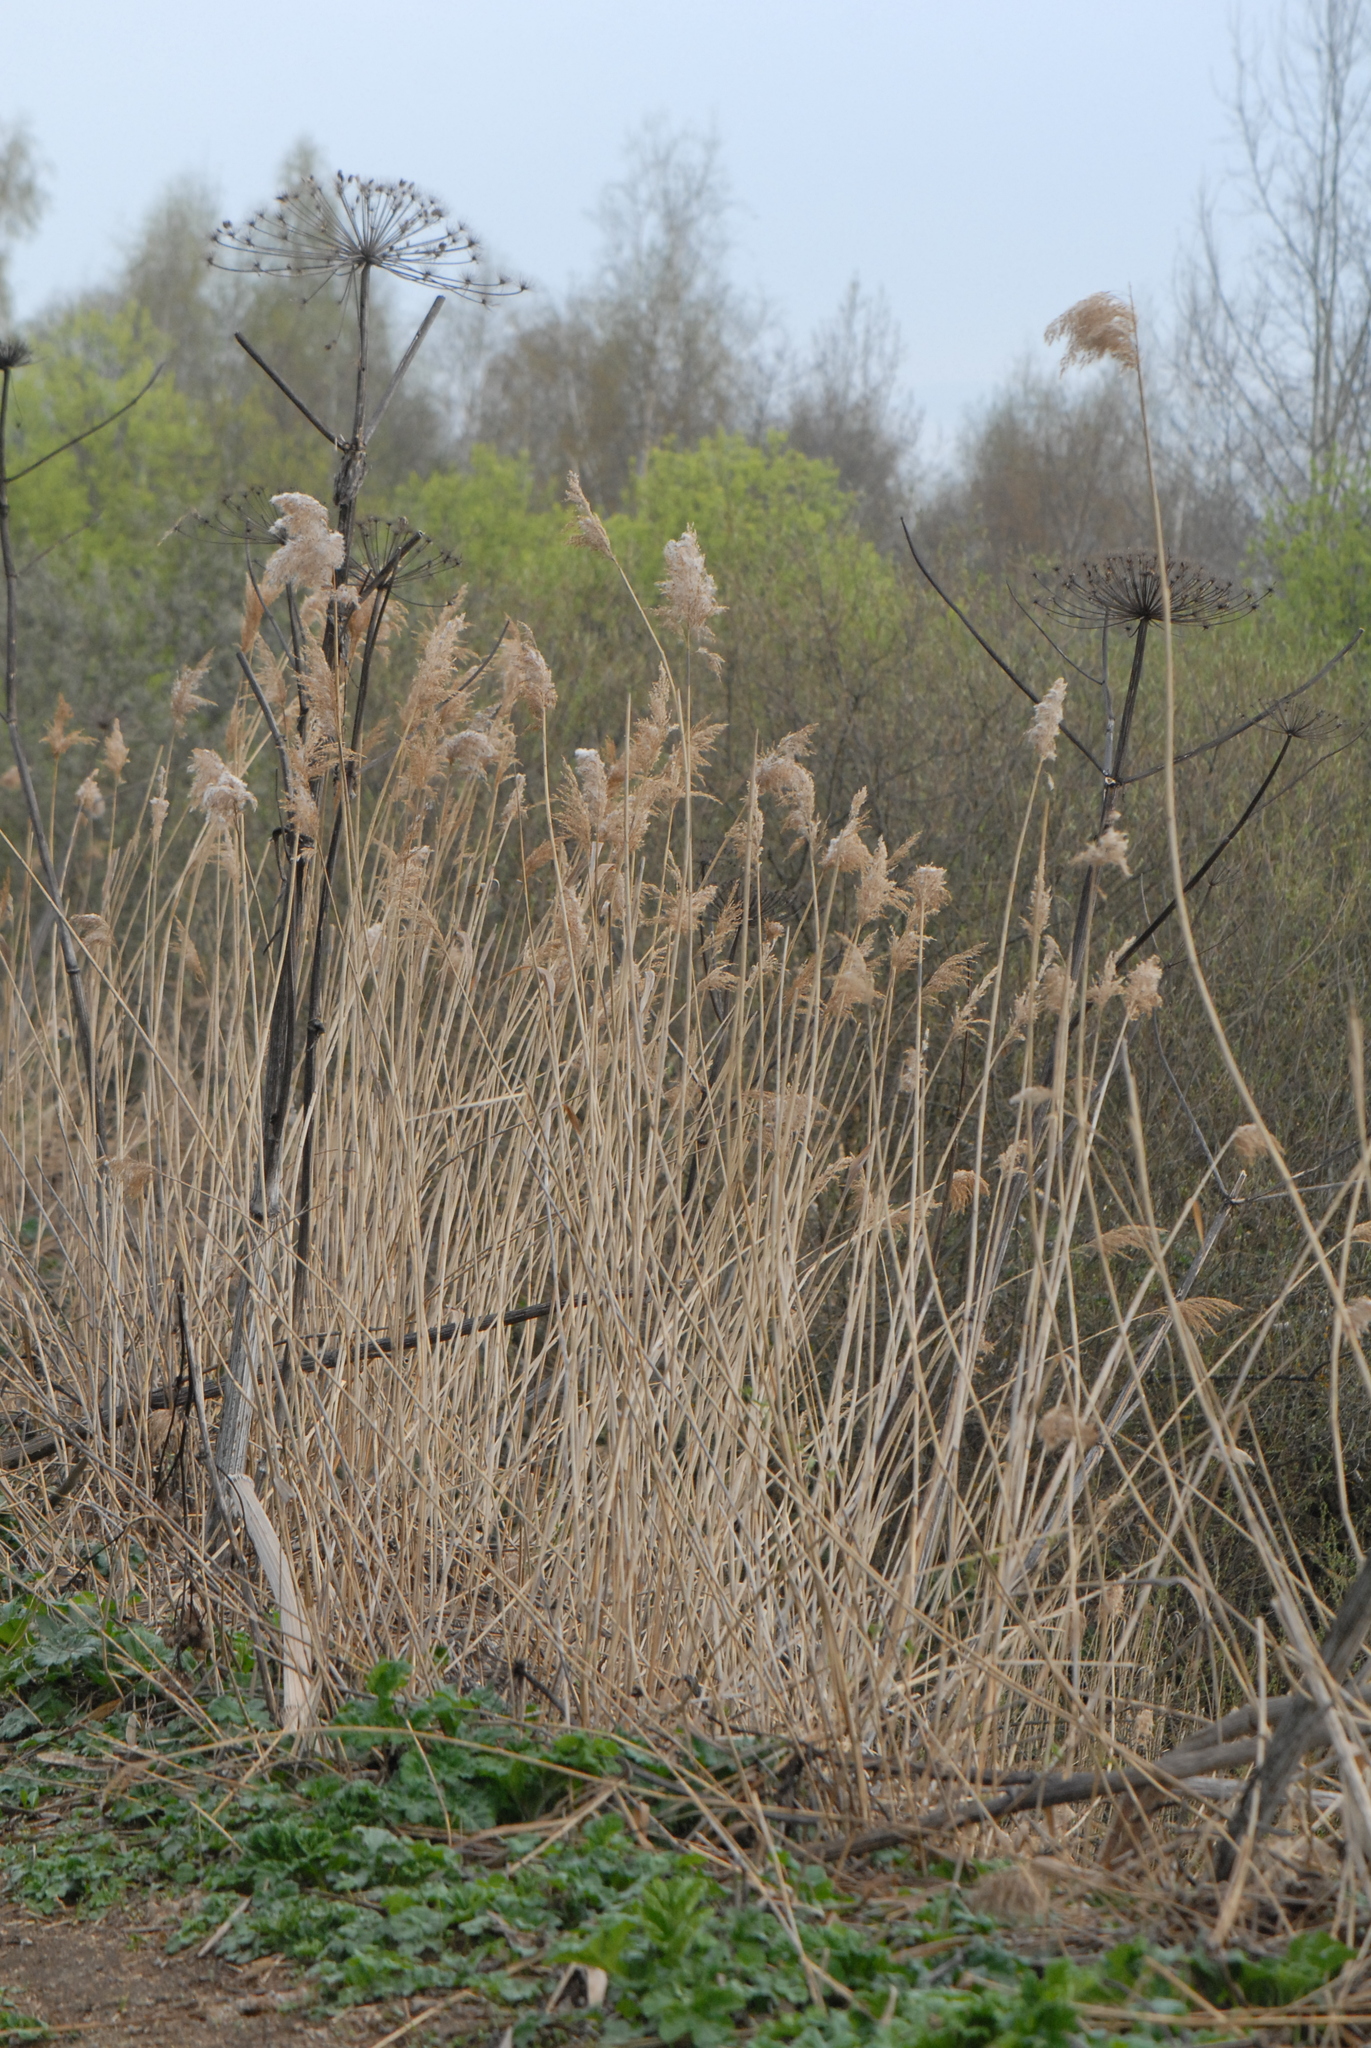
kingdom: Plantae
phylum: Tracheophyta
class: Liliopsida
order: Poales
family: Poaceae
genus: Phragmites
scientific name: Phragmites australis
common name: Common reed
